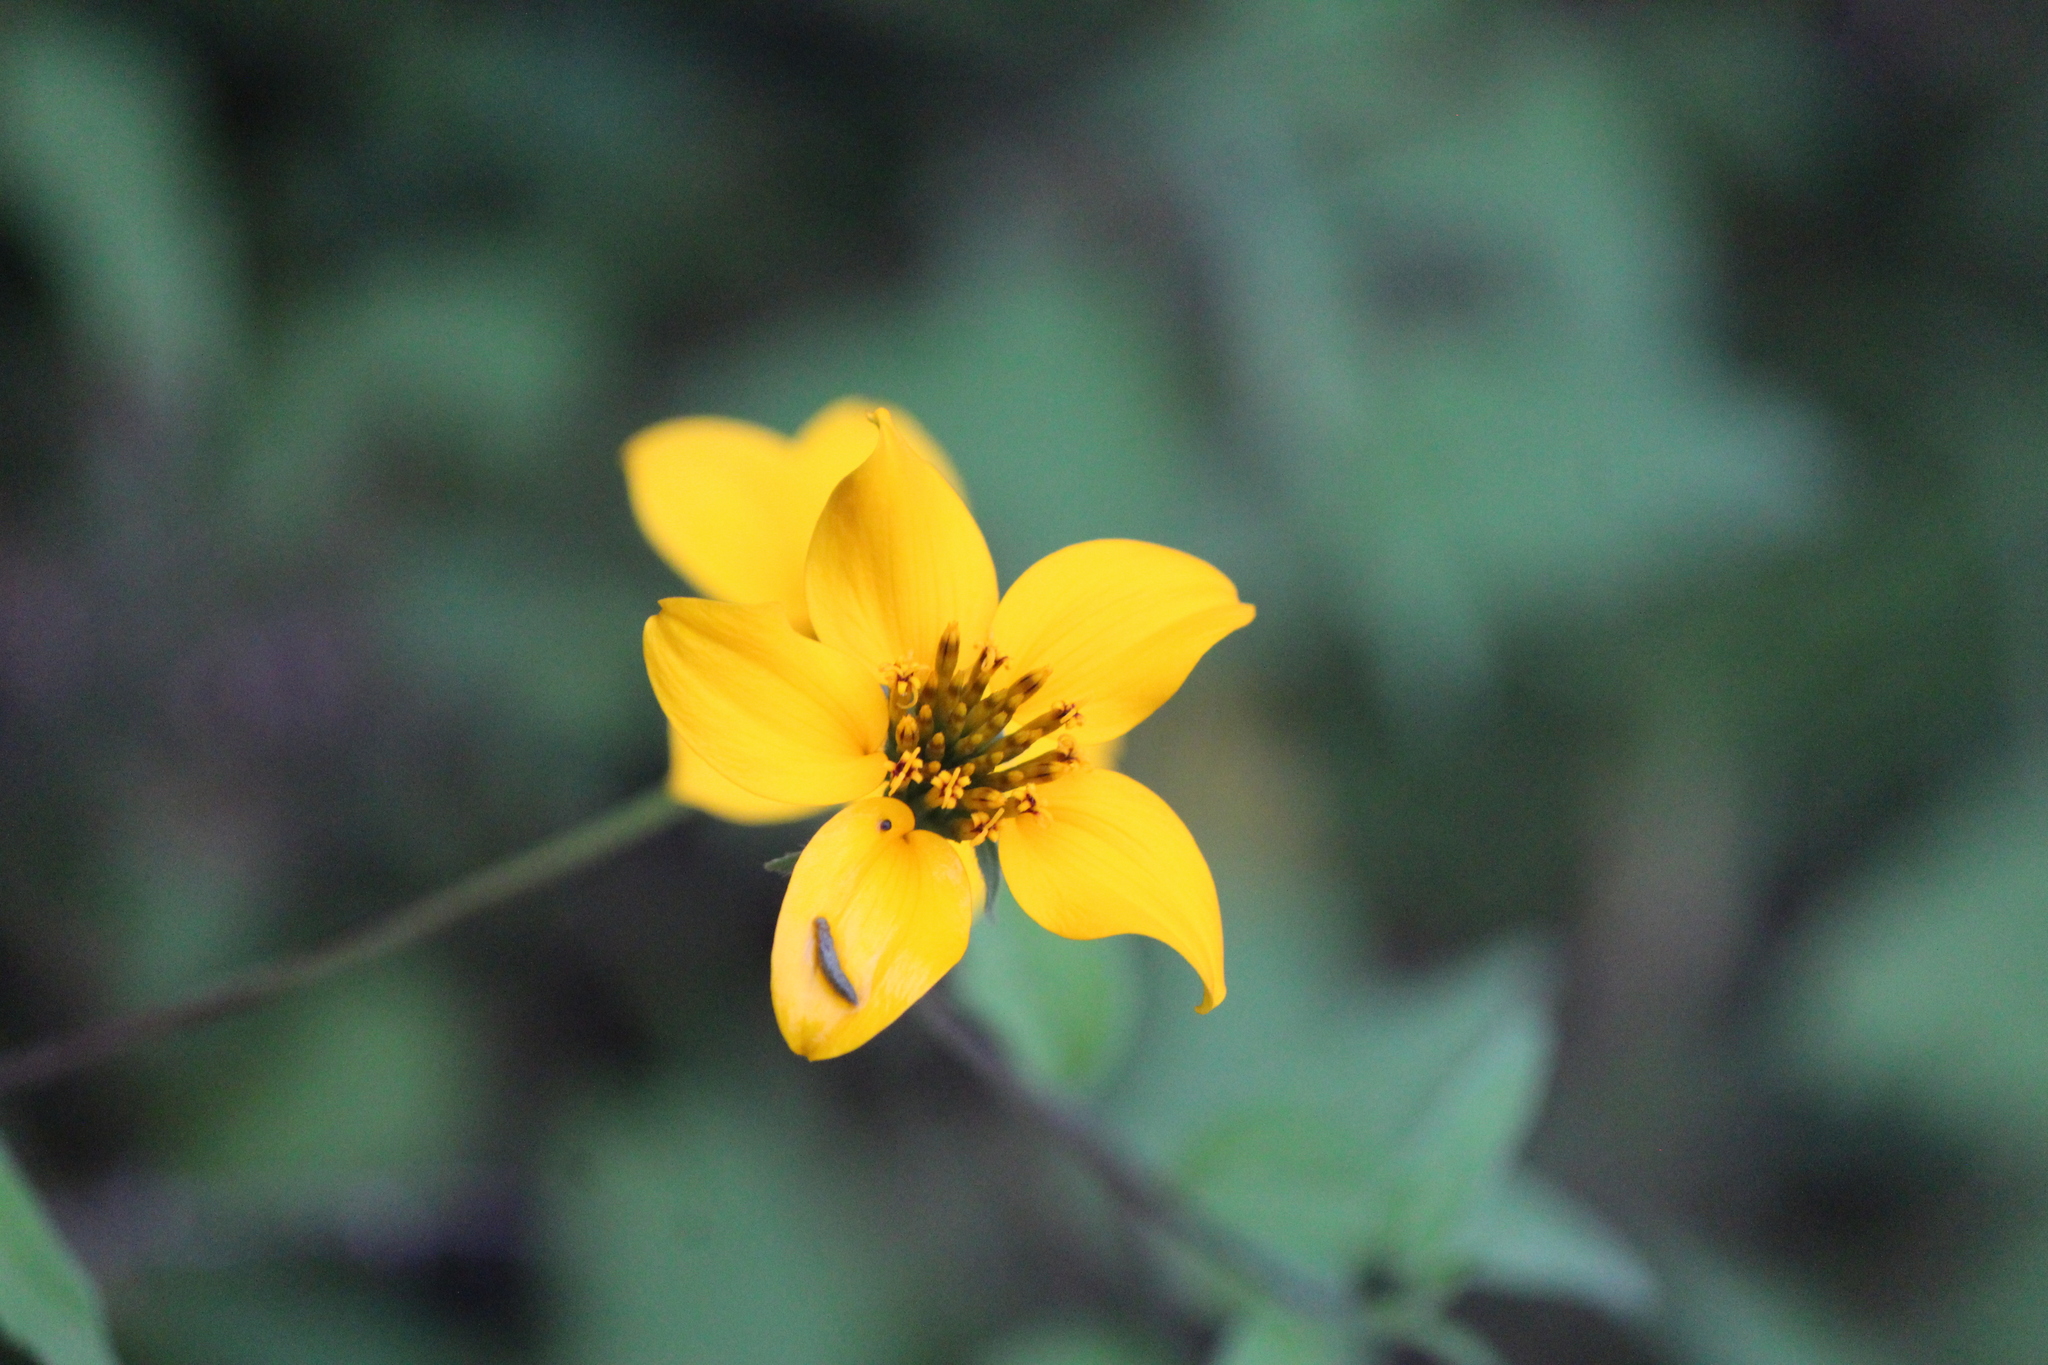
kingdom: Plantae
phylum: Tracheophyta
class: Magnoliopsida
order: Asterales
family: Asteraceae
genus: Sclerocarpus
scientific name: Sclerocarpus uniserialis
